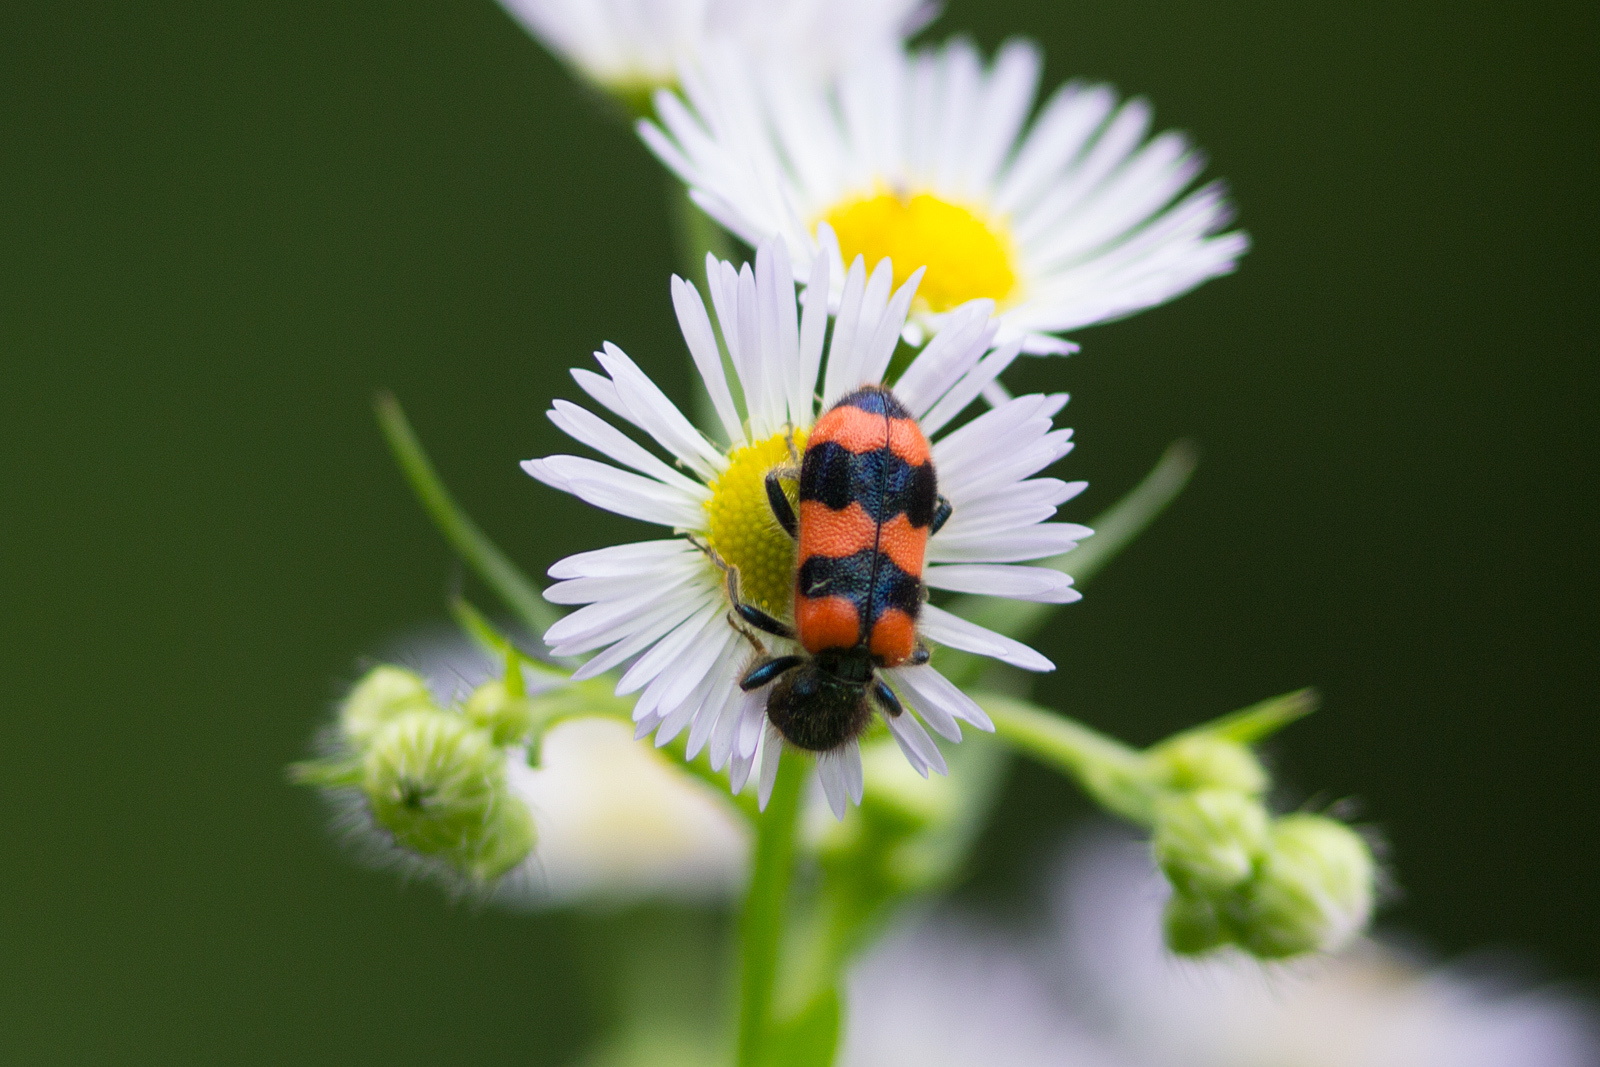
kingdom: Animalia
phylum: Arthropoda
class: Insecta
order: Coleoptera
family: Cleridae
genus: Trichodes
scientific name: Trichodes apiarius
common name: Bee-eating beetle
